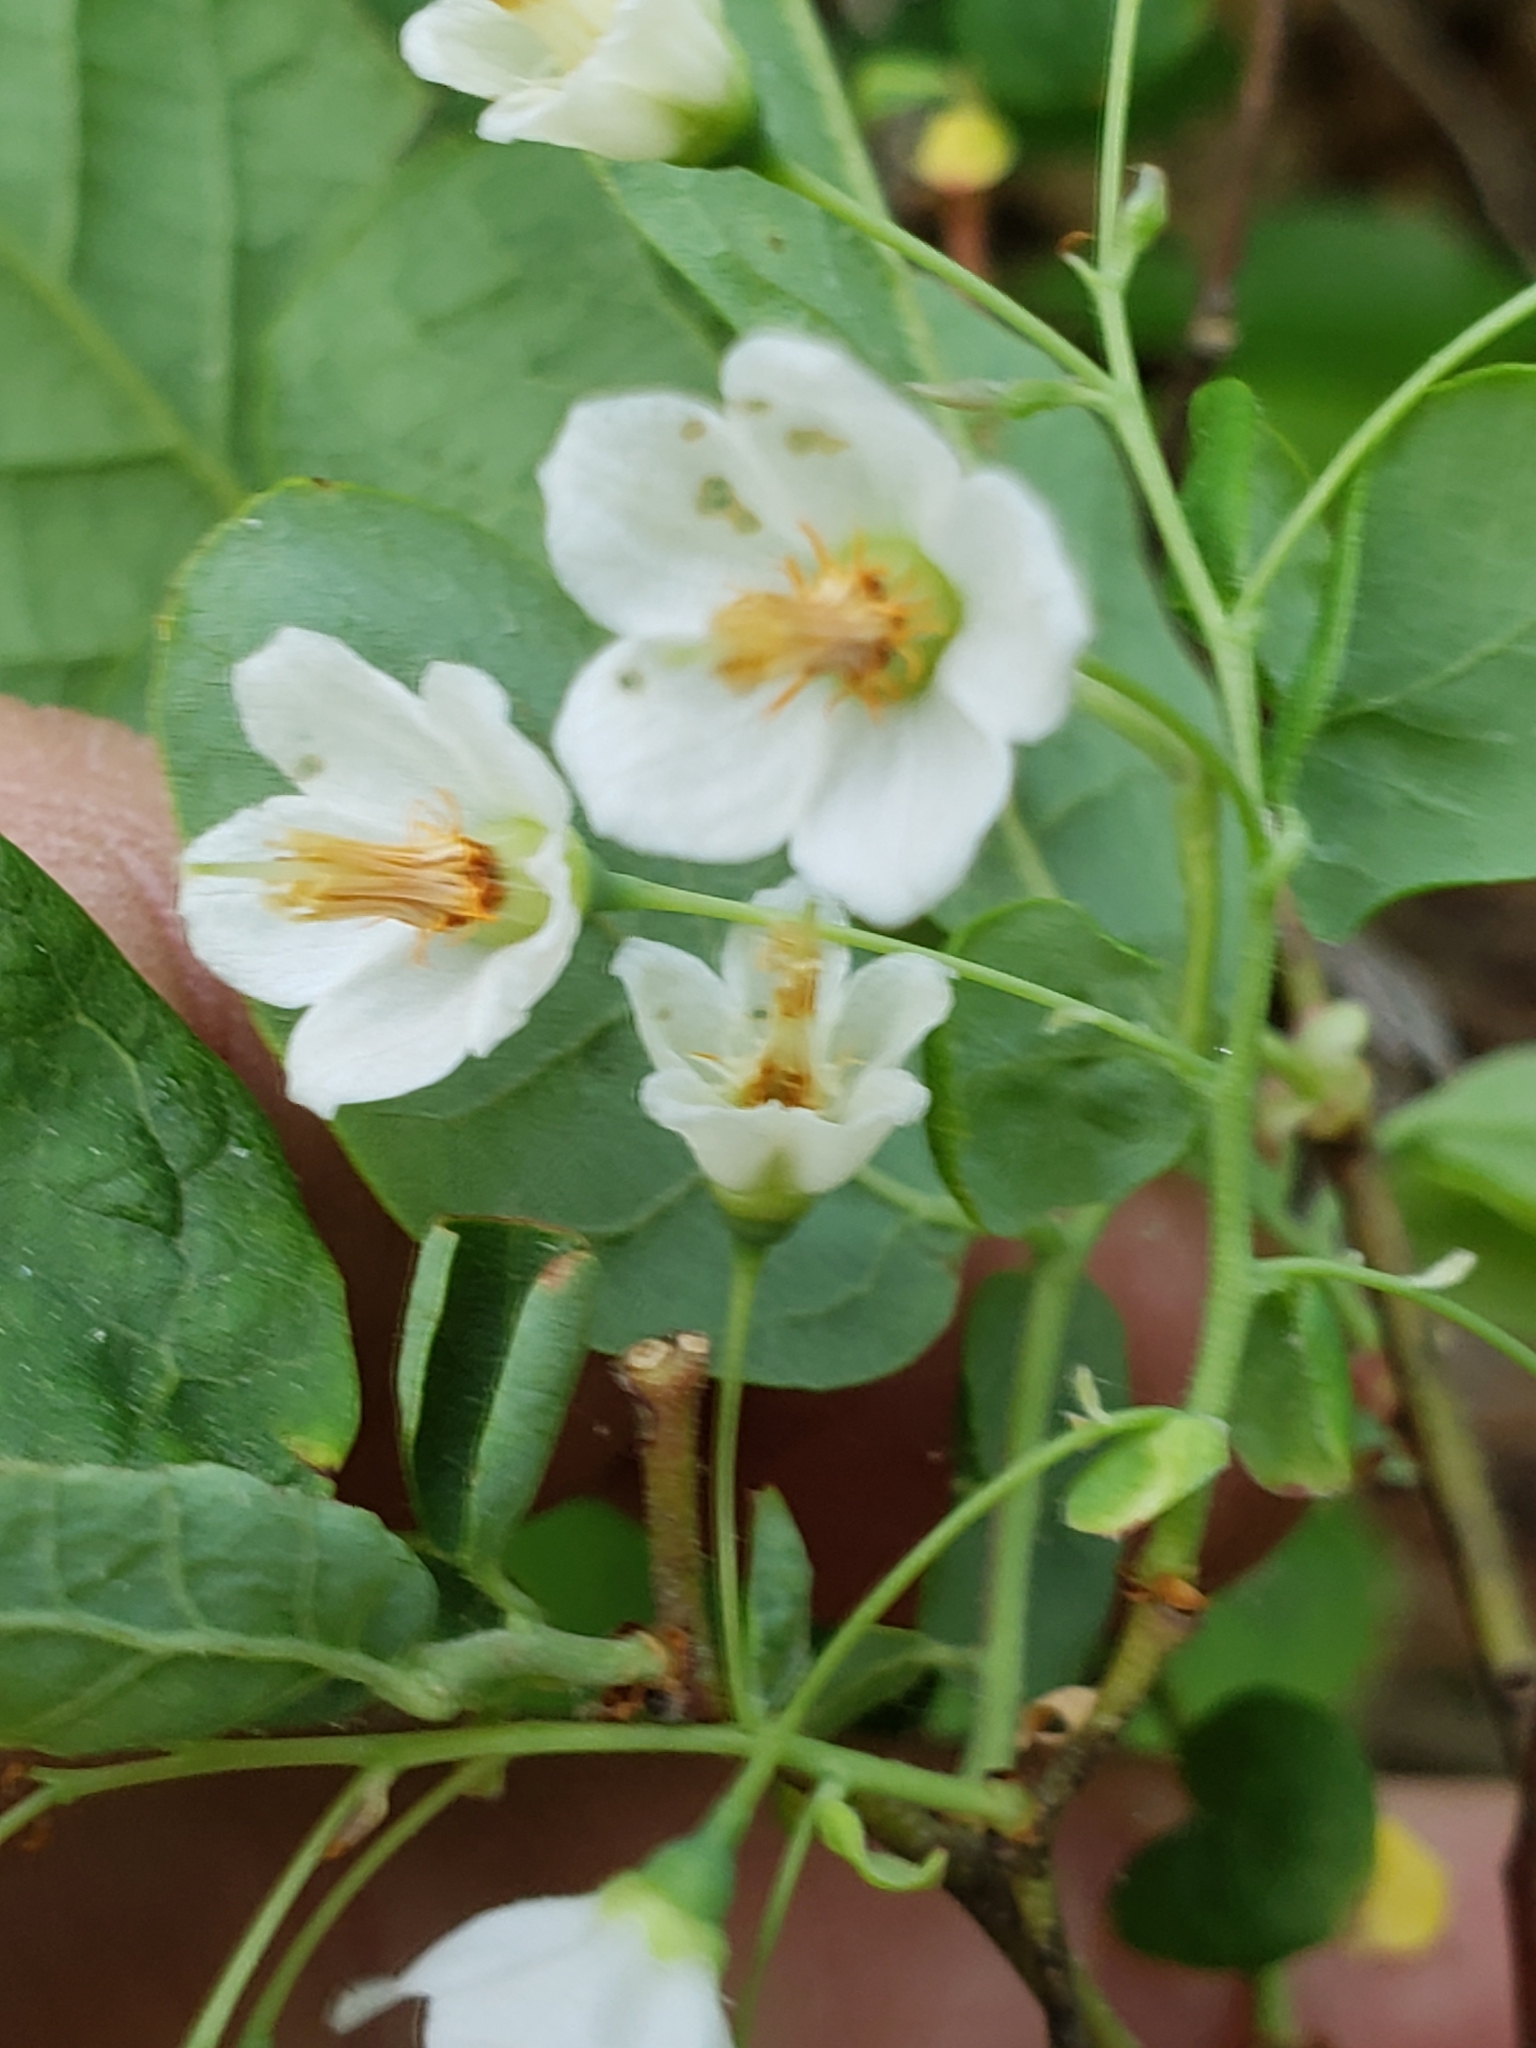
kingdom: Plantae
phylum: Tracheophyta
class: Magnoliopsida
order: Ericales
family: Ericaceae
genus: Vaccinium
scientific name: Vaccinium stamineum
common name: Deerberry
